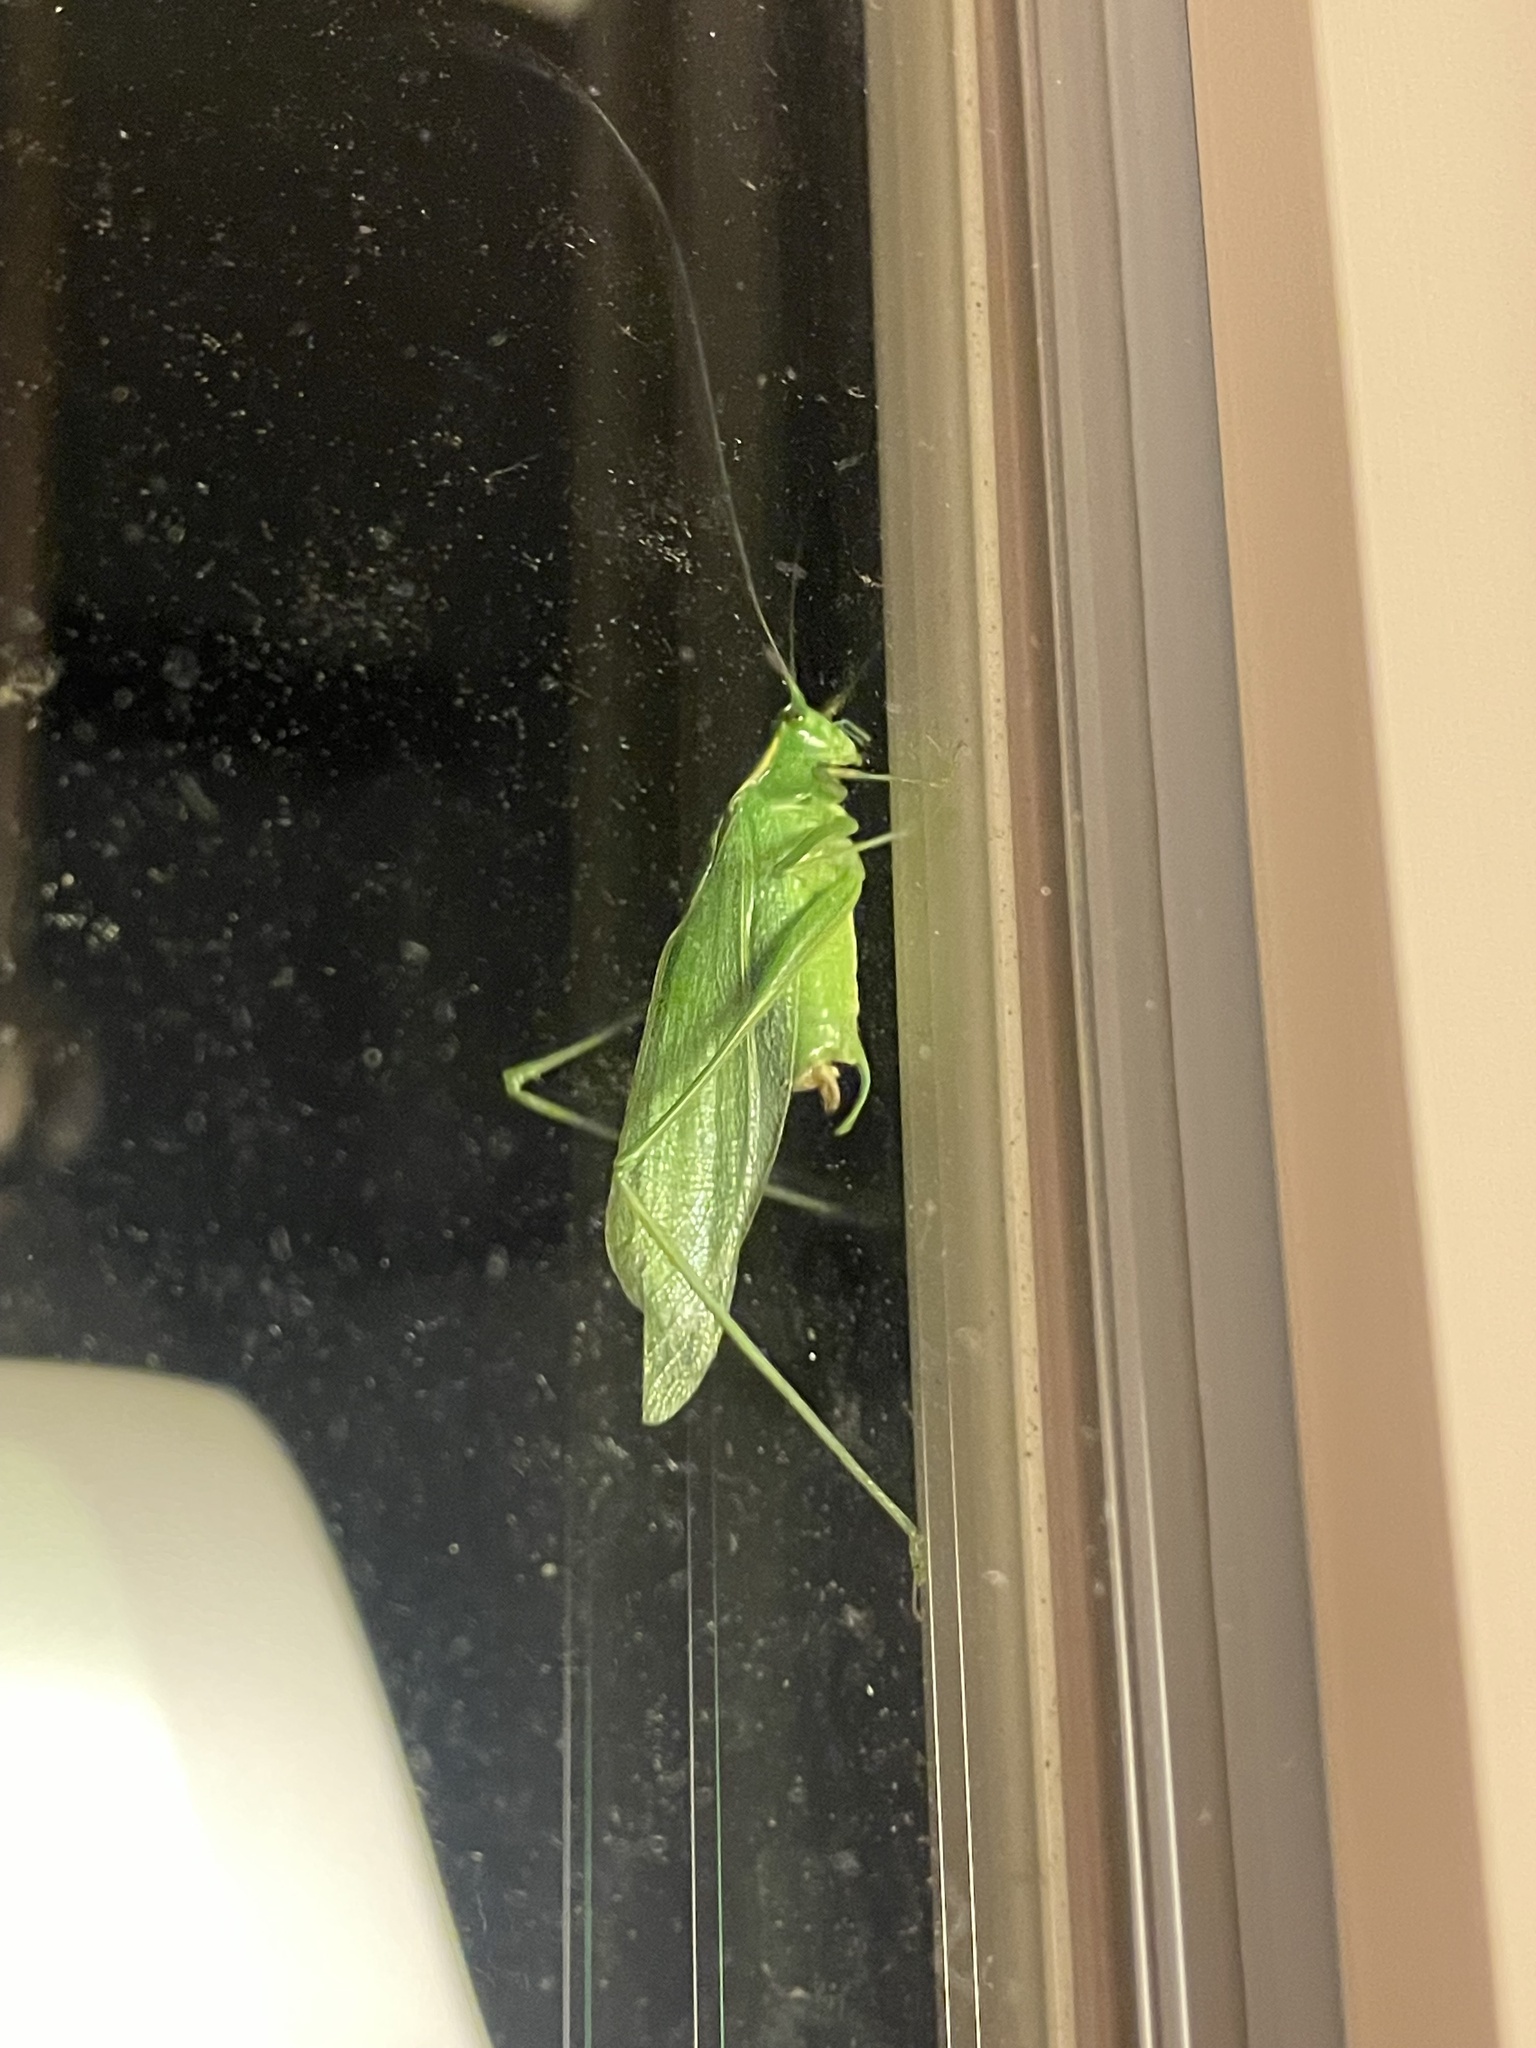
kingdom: Animalia
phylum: Arthropoda
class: Insecta
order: Orthoptera
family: Tettigoniidae
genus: Scudderia
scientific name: Scudderia septentrionalis
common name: Northern bush-katydid
